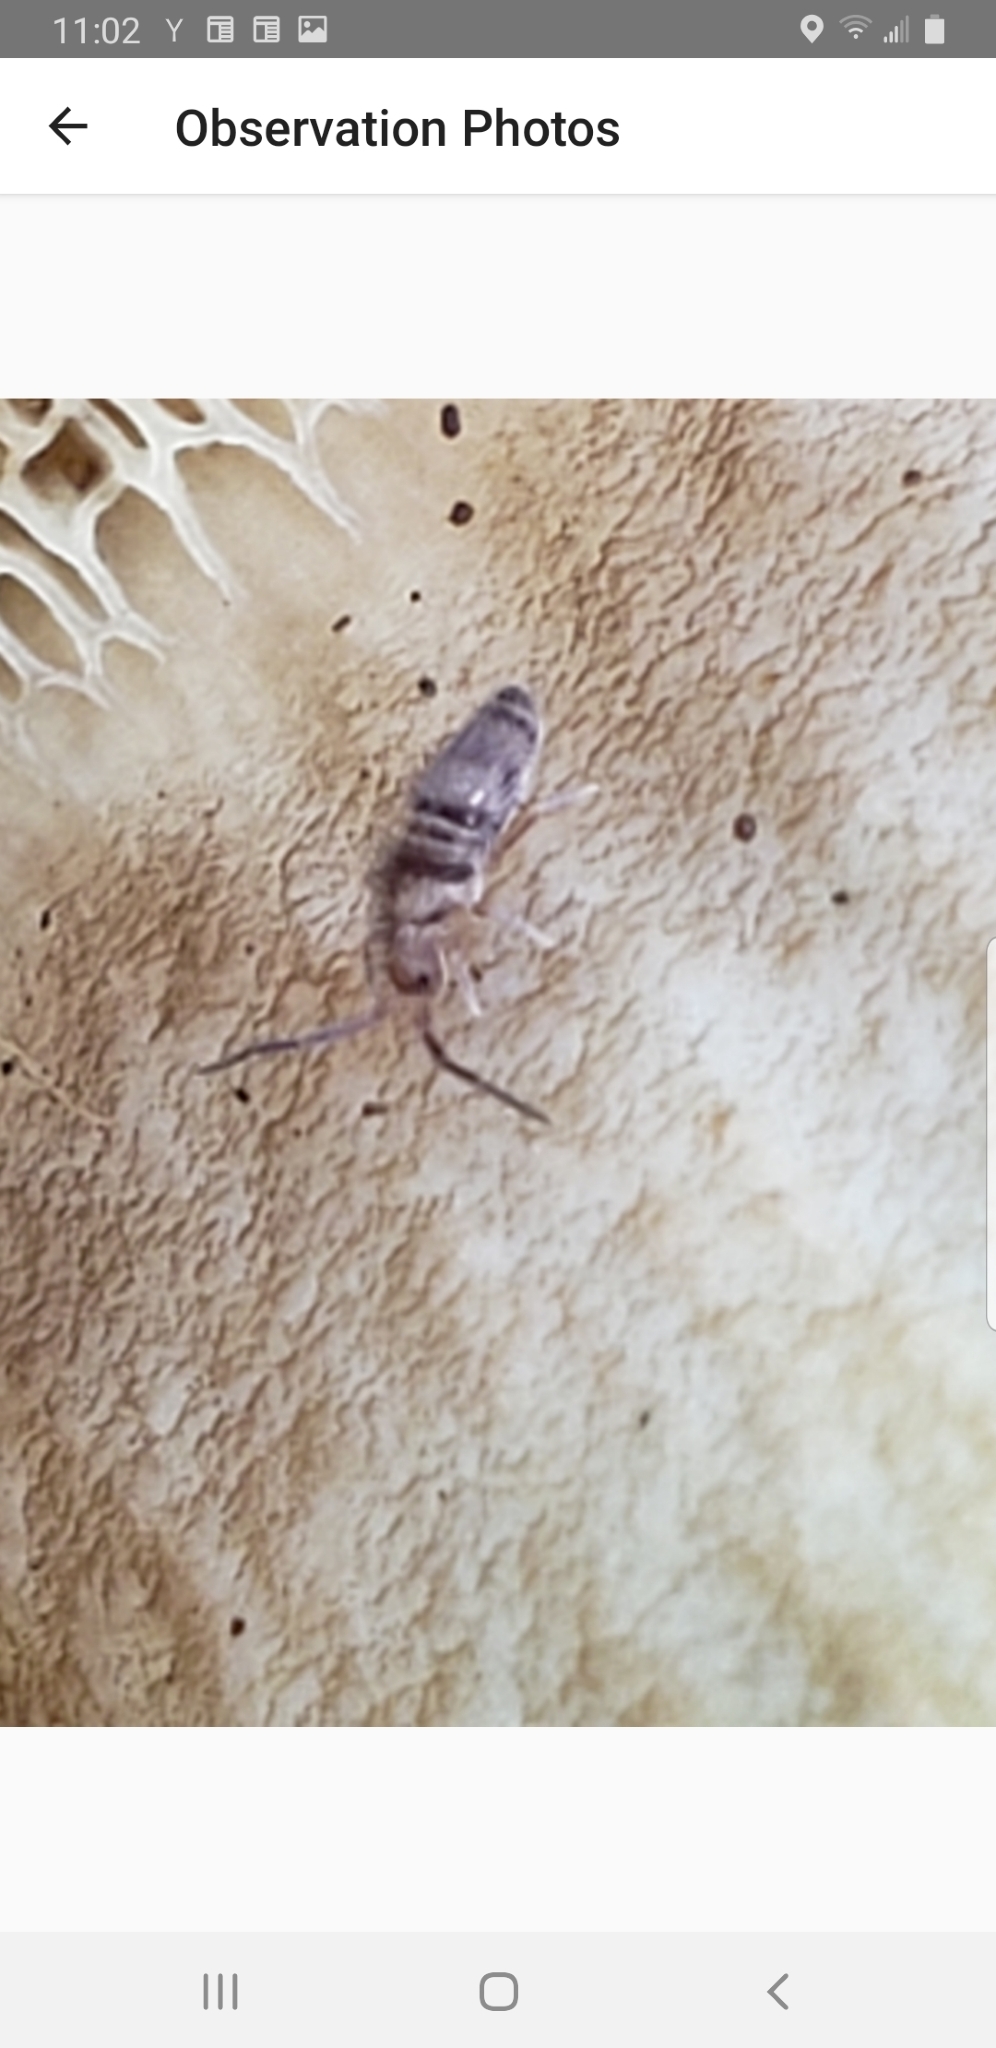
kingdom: Animalia
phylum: Arthropoda
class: Collembola
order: Entomobryomorpha
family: Entomobryidae
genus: Homidia
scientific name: Homidia sauteri
